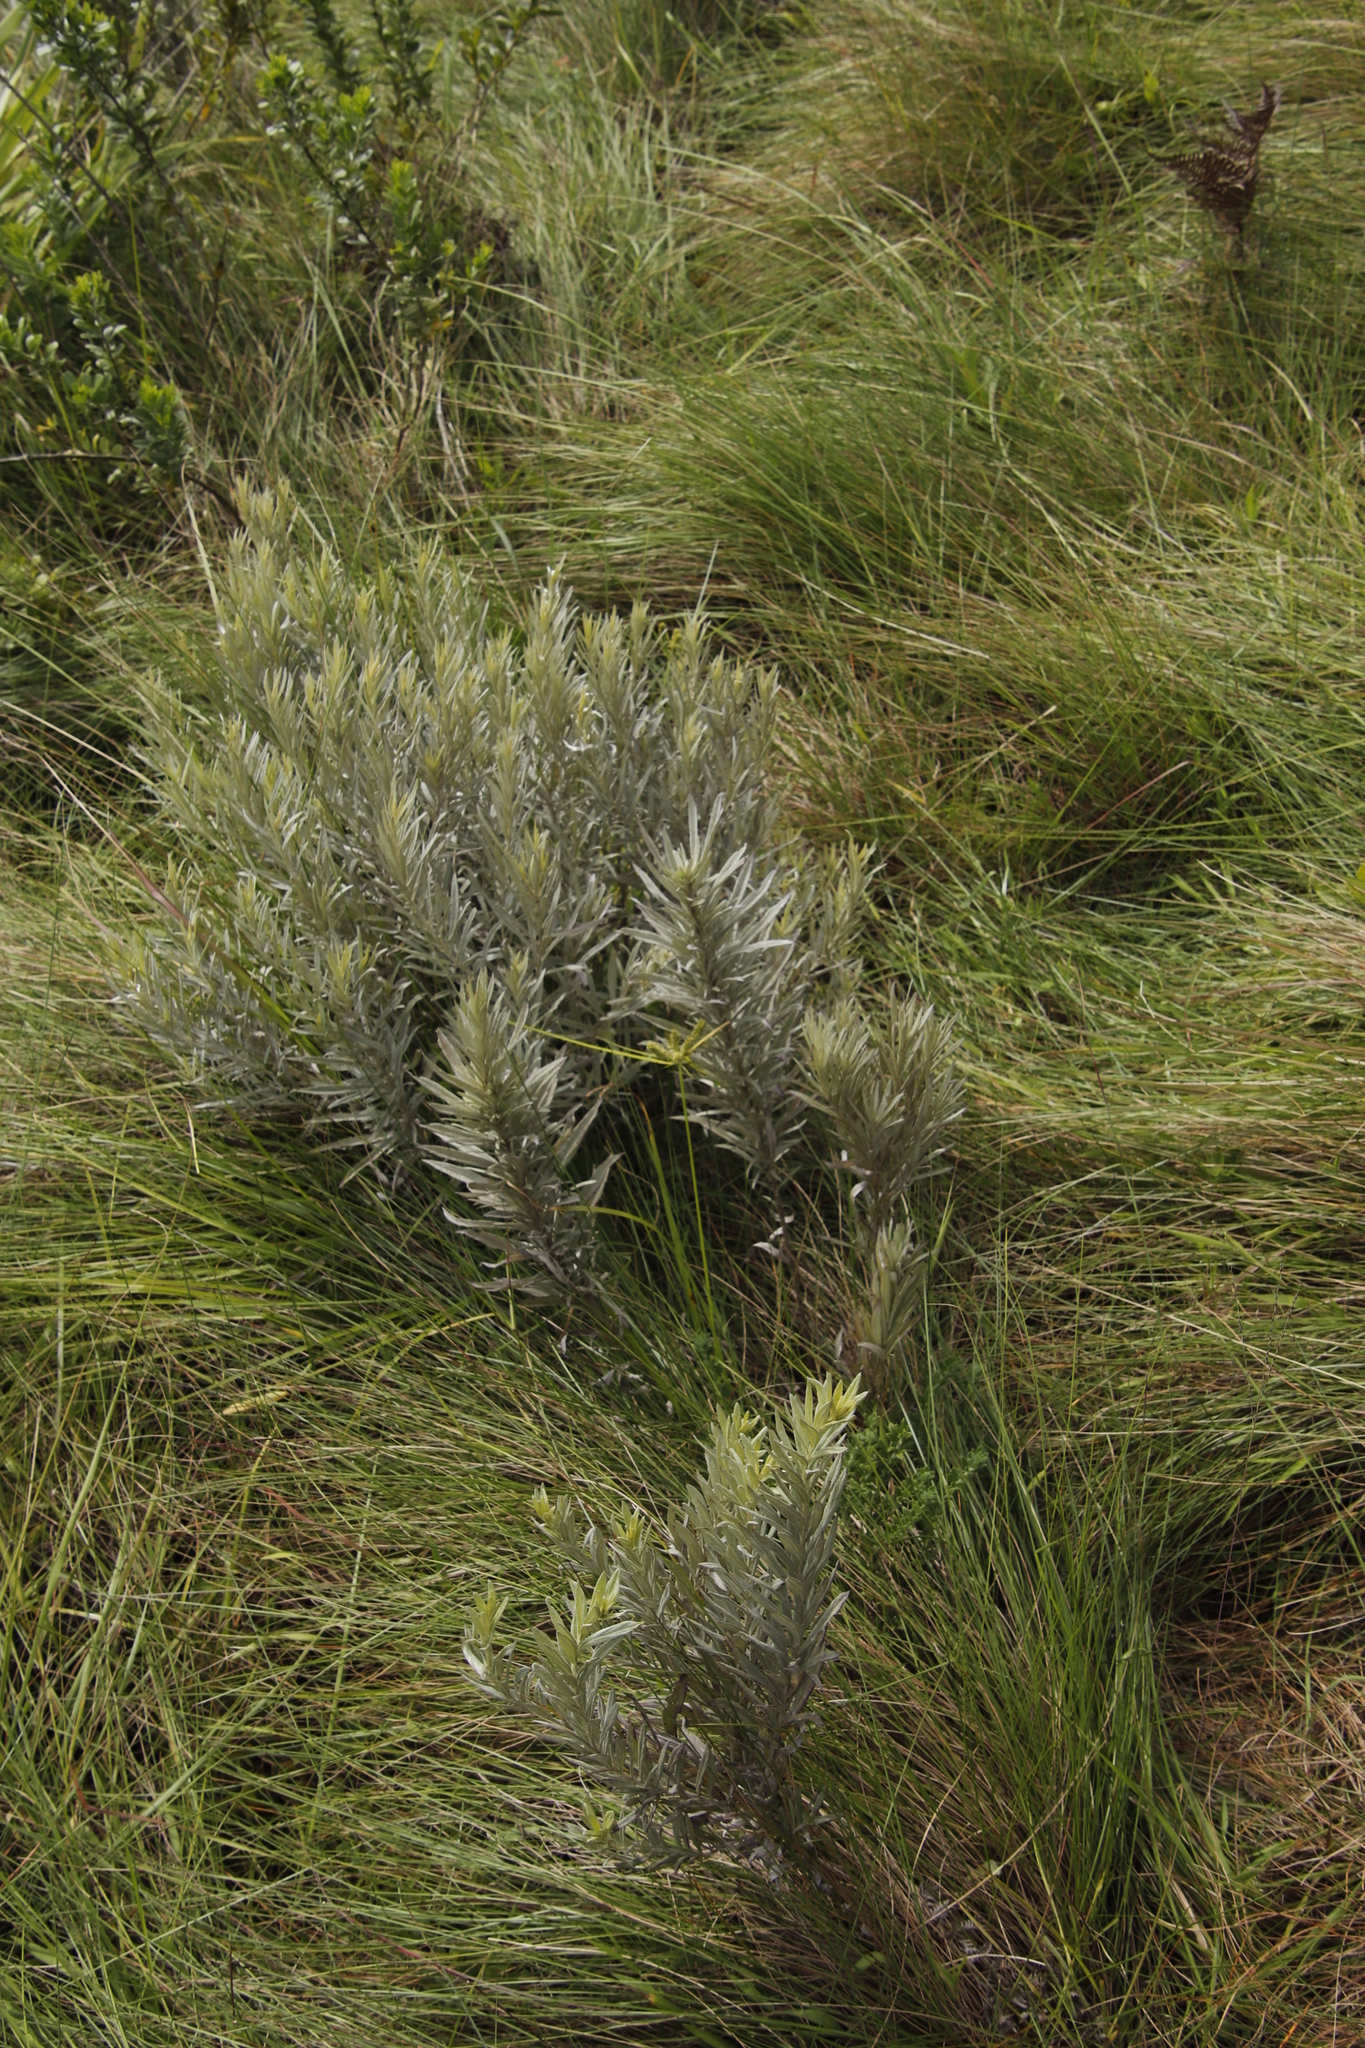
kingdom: Plantae
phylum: Tracheophyta
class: Magnoliopsida
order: Asterales
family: Asteraceae
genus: Hilliardiella
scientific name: Hilliardiella aristata
